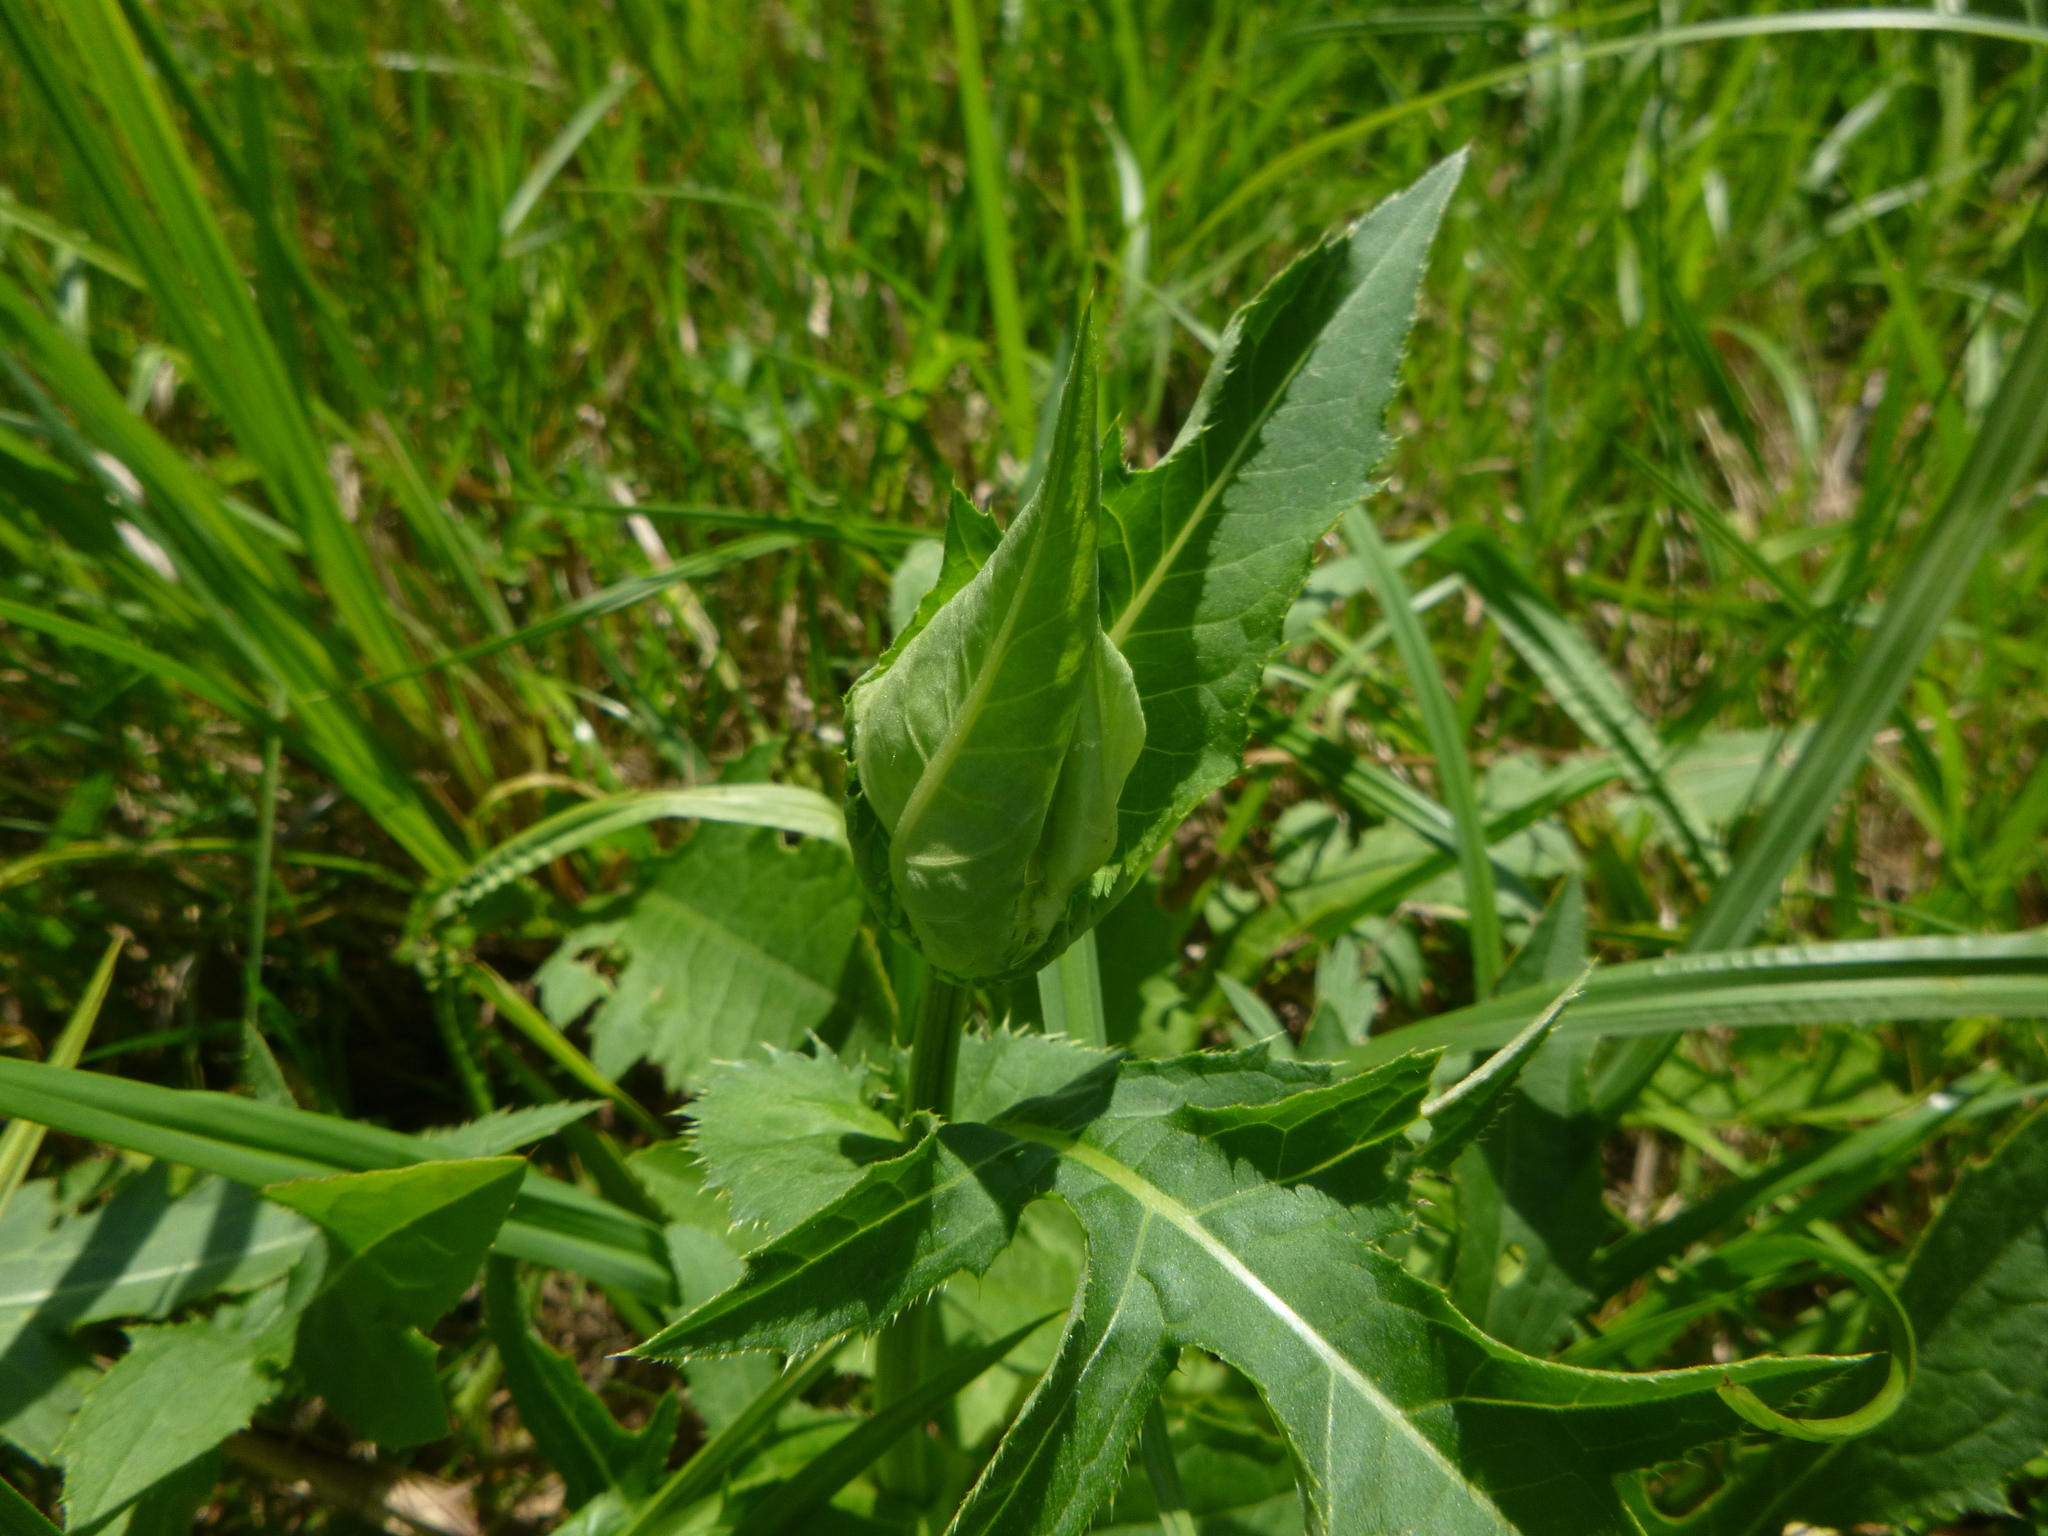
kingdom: Plantae
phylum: Tracheophyta
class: Magnoliopsida
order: Asterales
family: Asteraceae
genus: Cirsium
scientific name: Cirsium oleraceum
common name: Cabbage thistle
